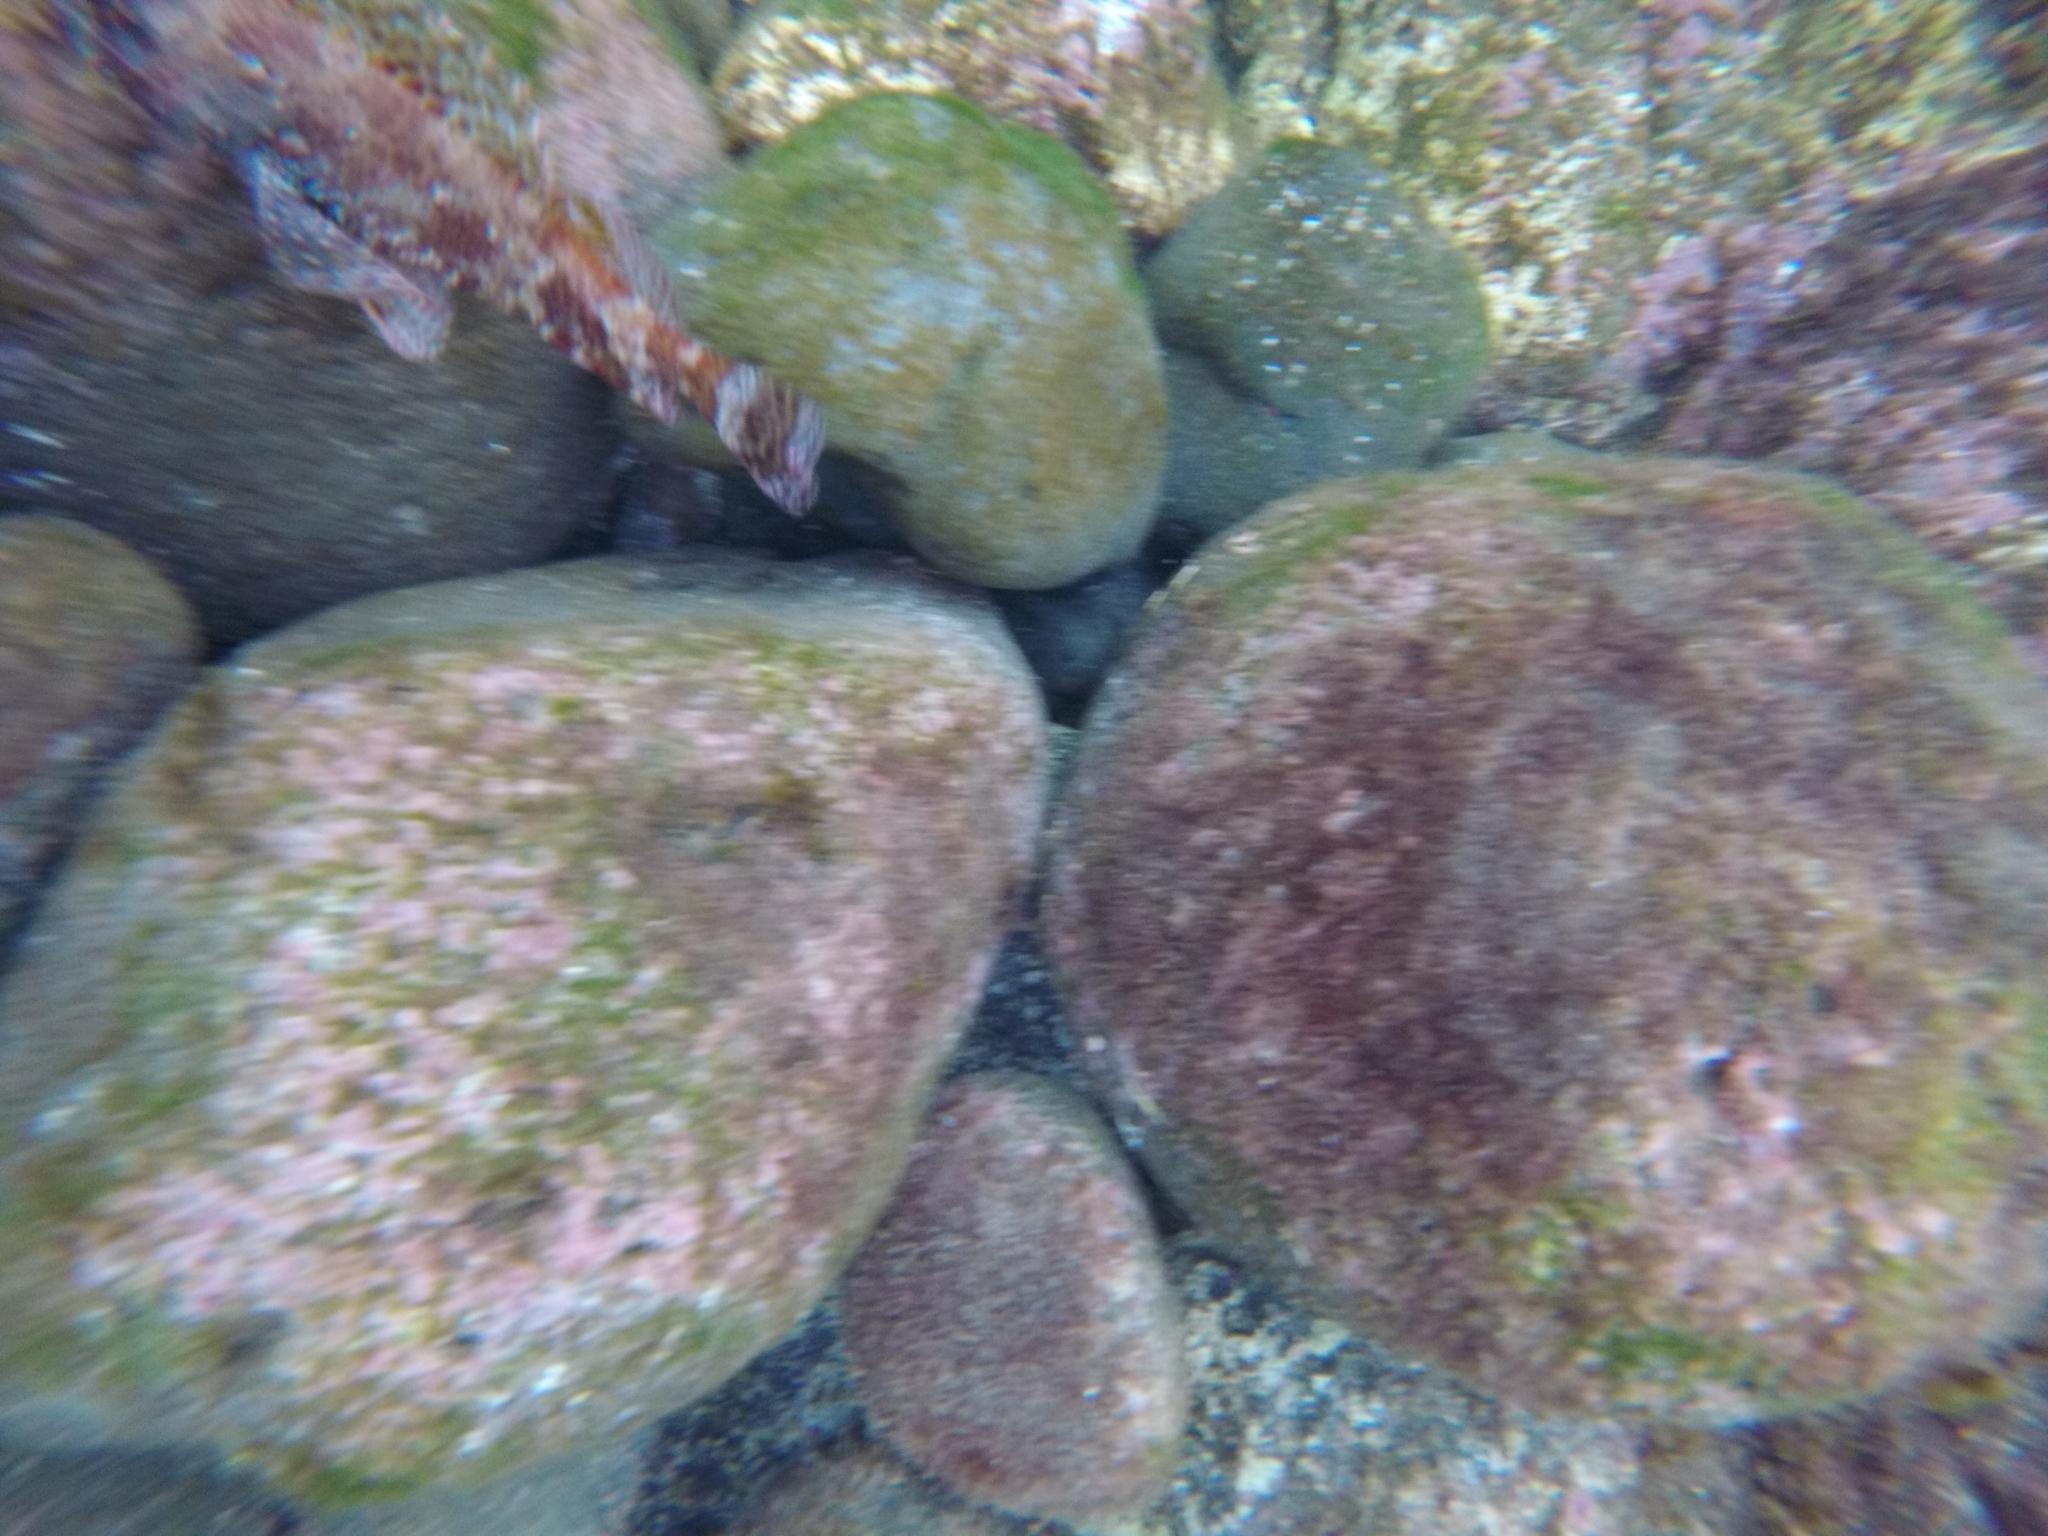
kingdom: Animalia
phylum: Chordata
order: Scorpaeniformes
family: Scorpaenidae
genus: Scorpaena
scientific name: Scorpaena maderensis
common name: Madeira rockfish
